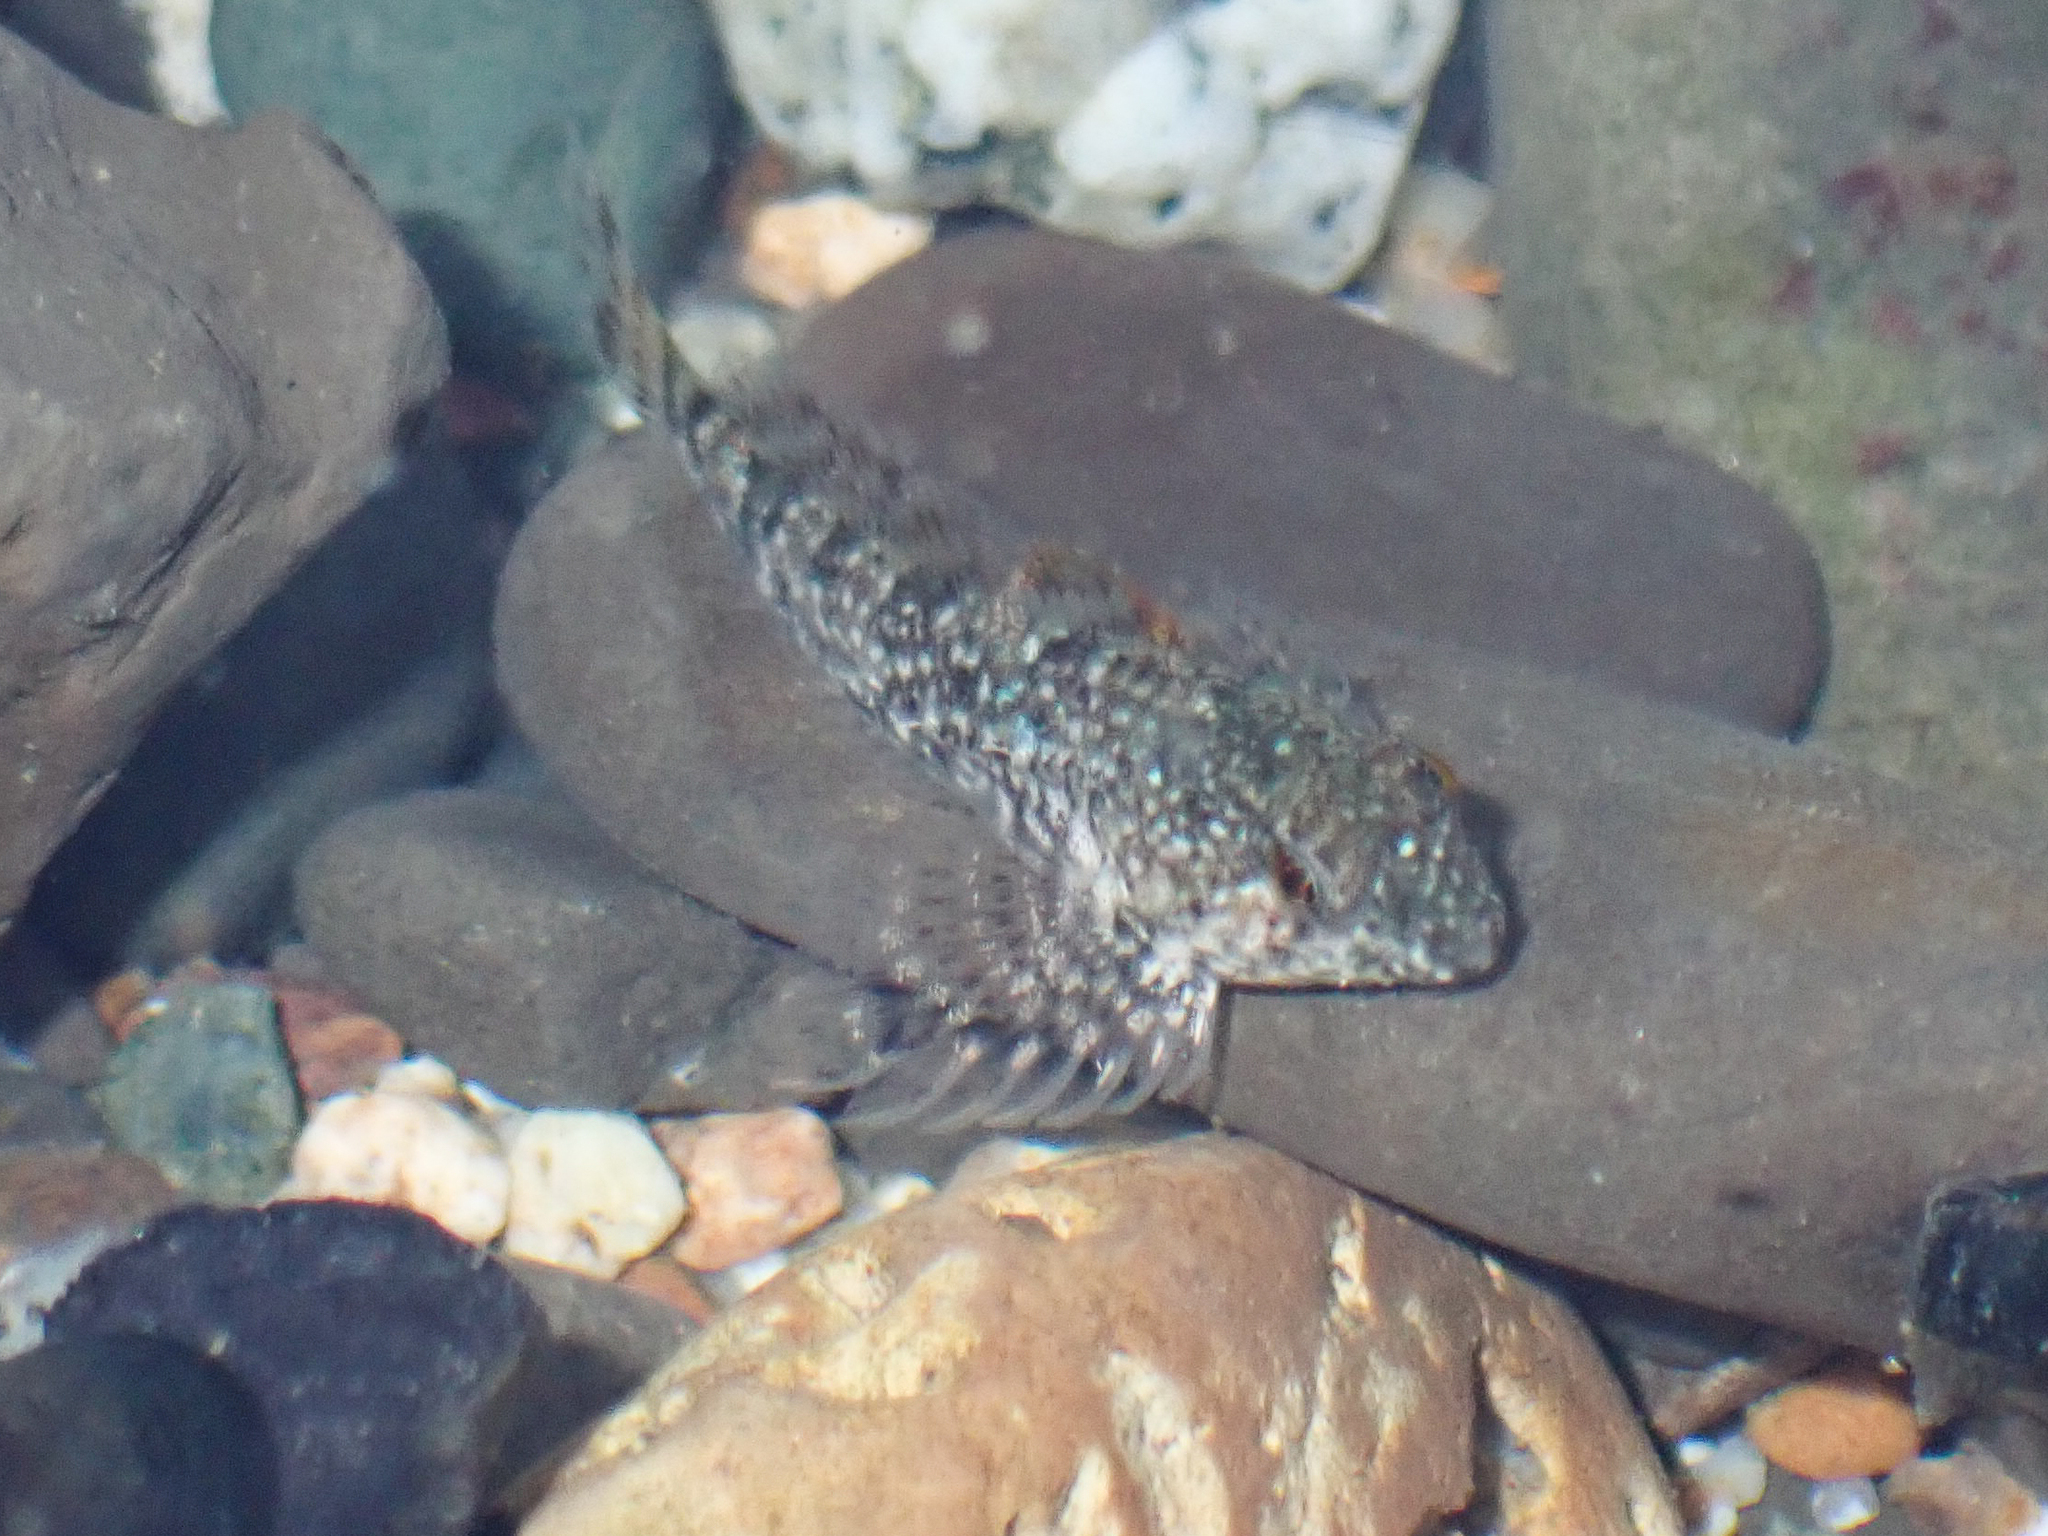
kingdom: Animalia
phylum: Chordata
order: Scorpaeniformes
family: Cottidae
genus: Clinocottus
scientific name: Clinocottus analis
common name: Woolly sculpin
